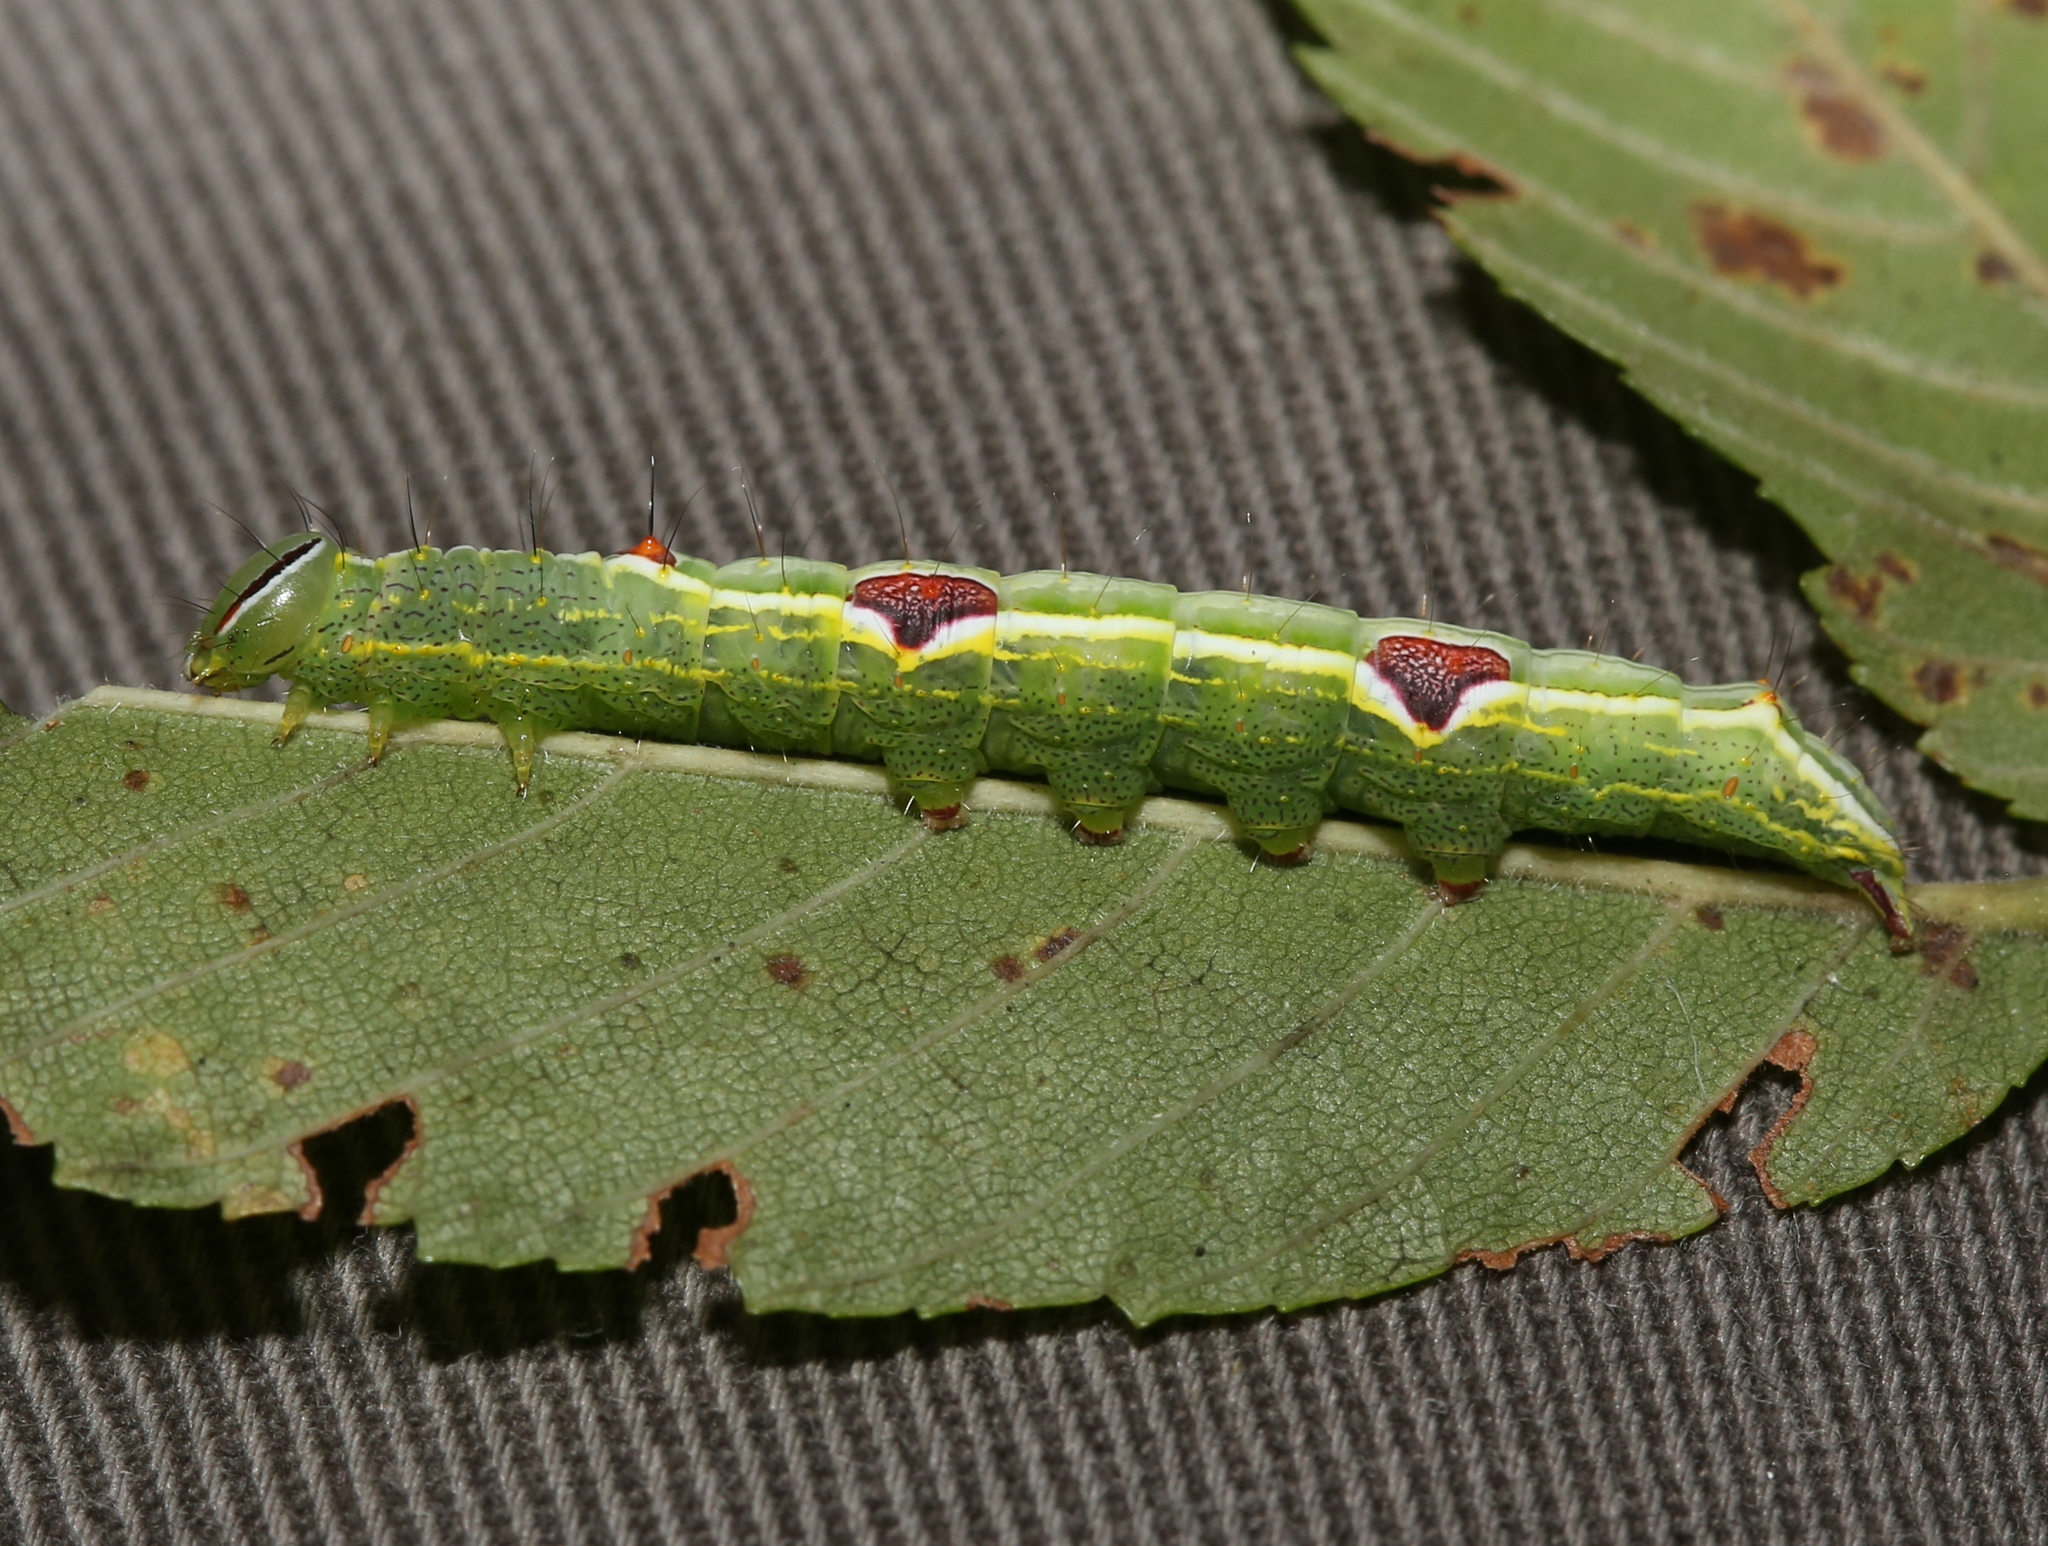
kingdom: Animalia
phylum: Arthropoda
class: Insecta
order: Lepidoptera
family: Notodontidae
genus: Lochmaeus
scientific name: Lochmaeus bilineata
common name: Double-lined prominent
